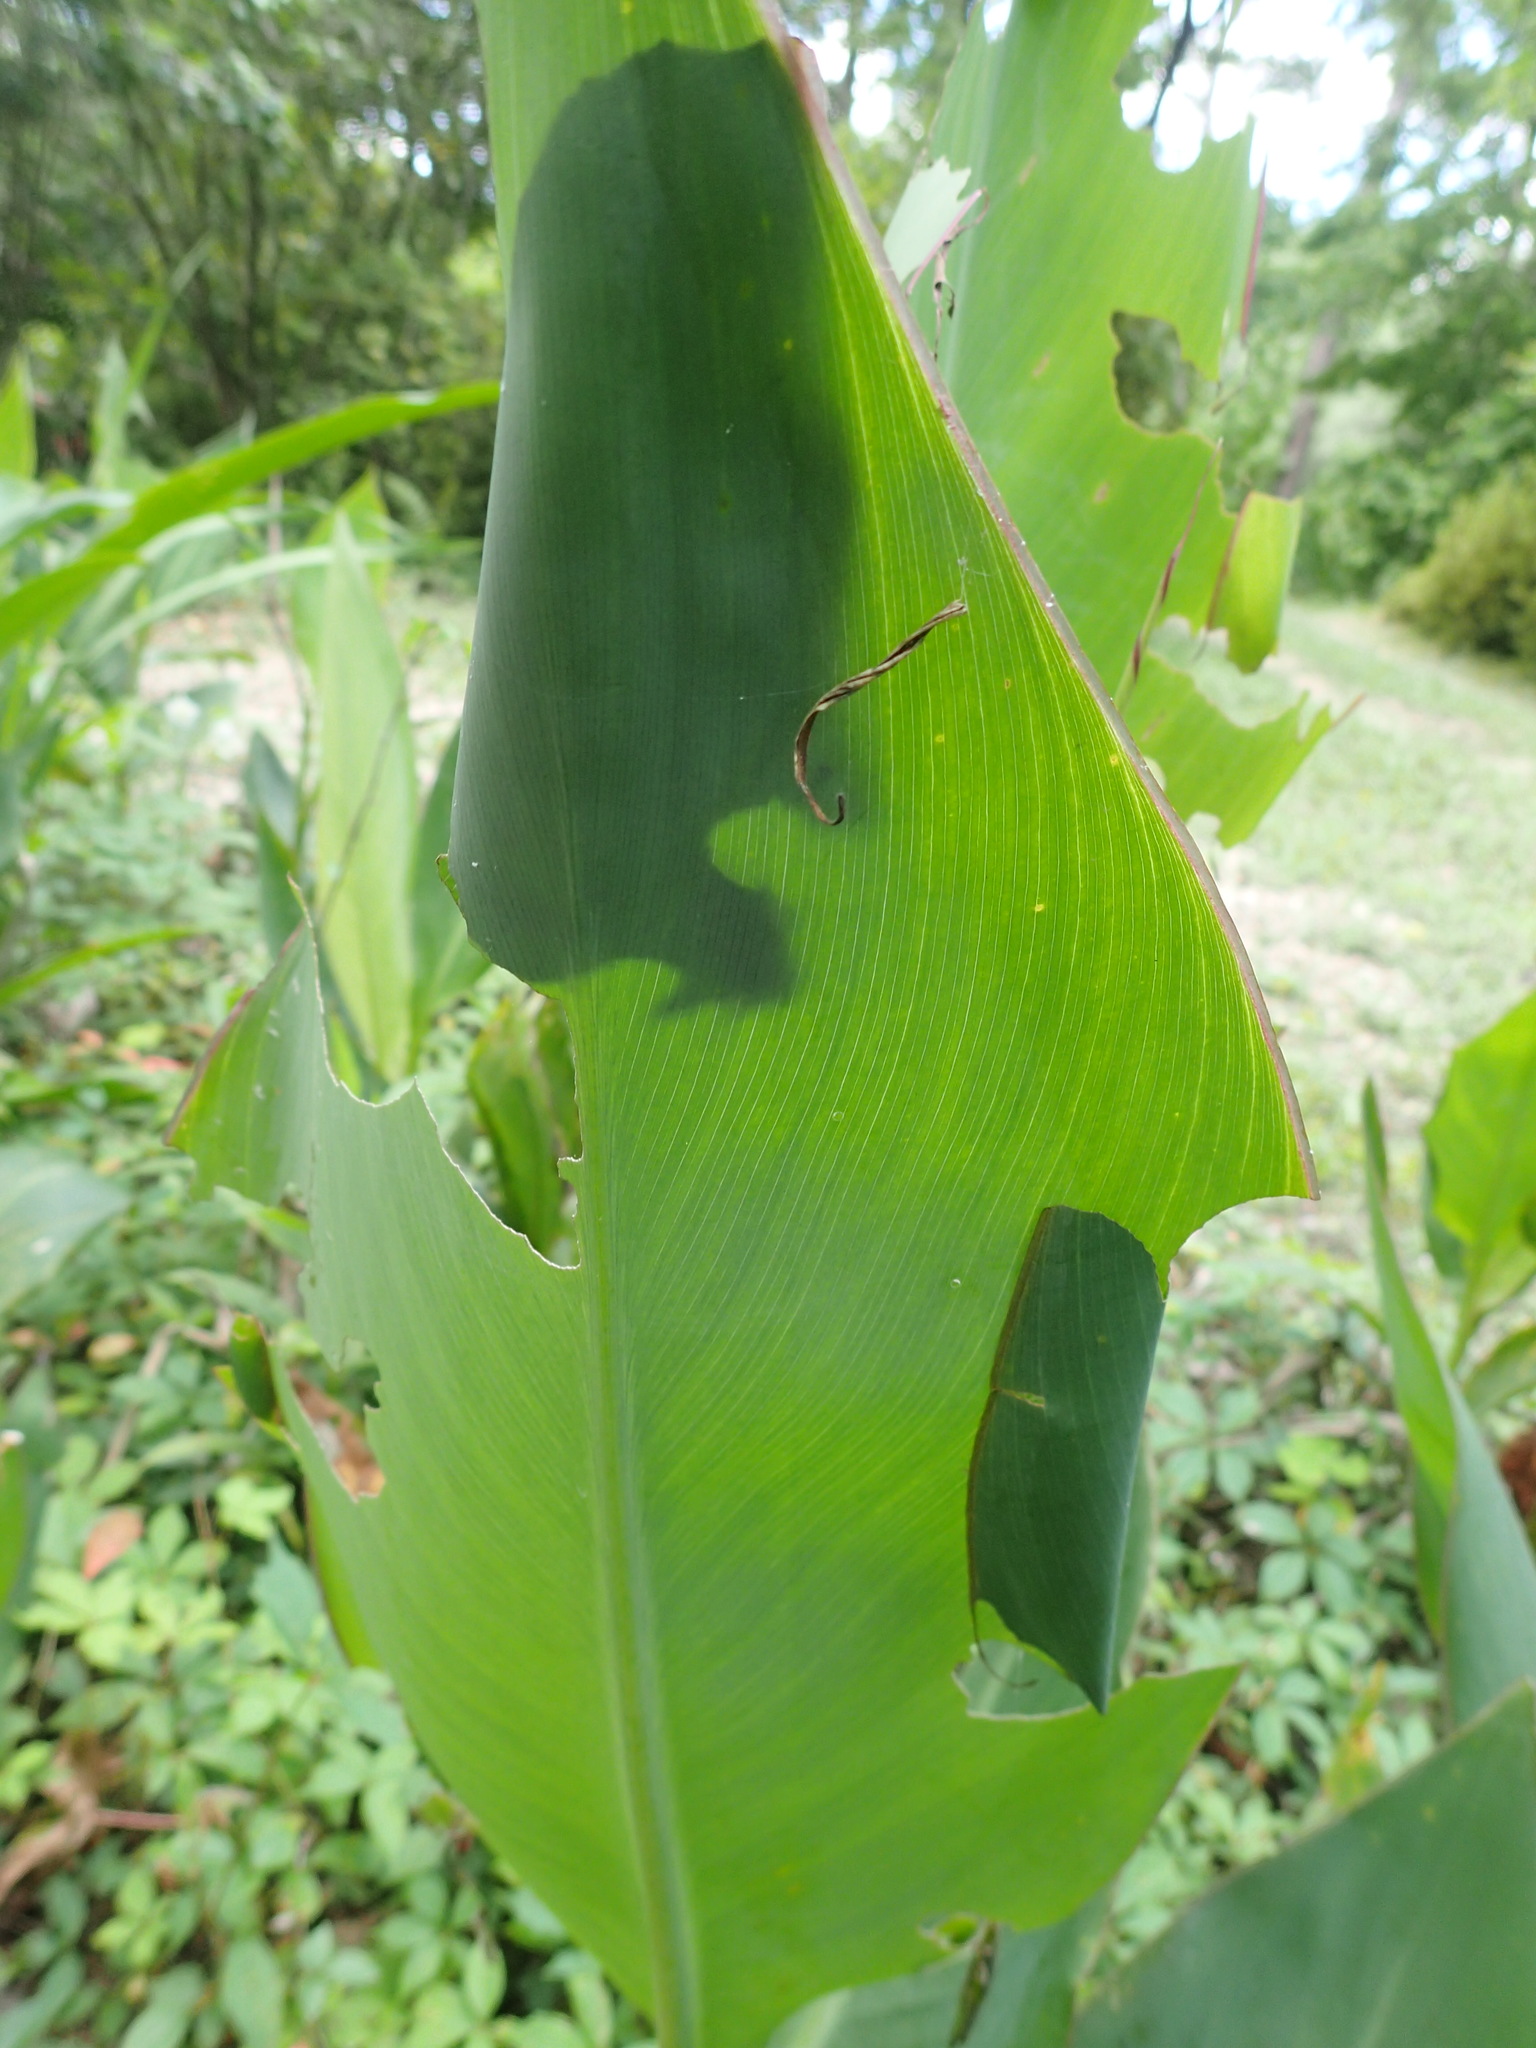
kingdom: Animalia
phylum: Arthropoda
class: Insecta
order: Lepidoptera
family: Hesperiidae
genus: Calpodes
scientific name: Calpodes ethlius
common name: Brazilian skipper
